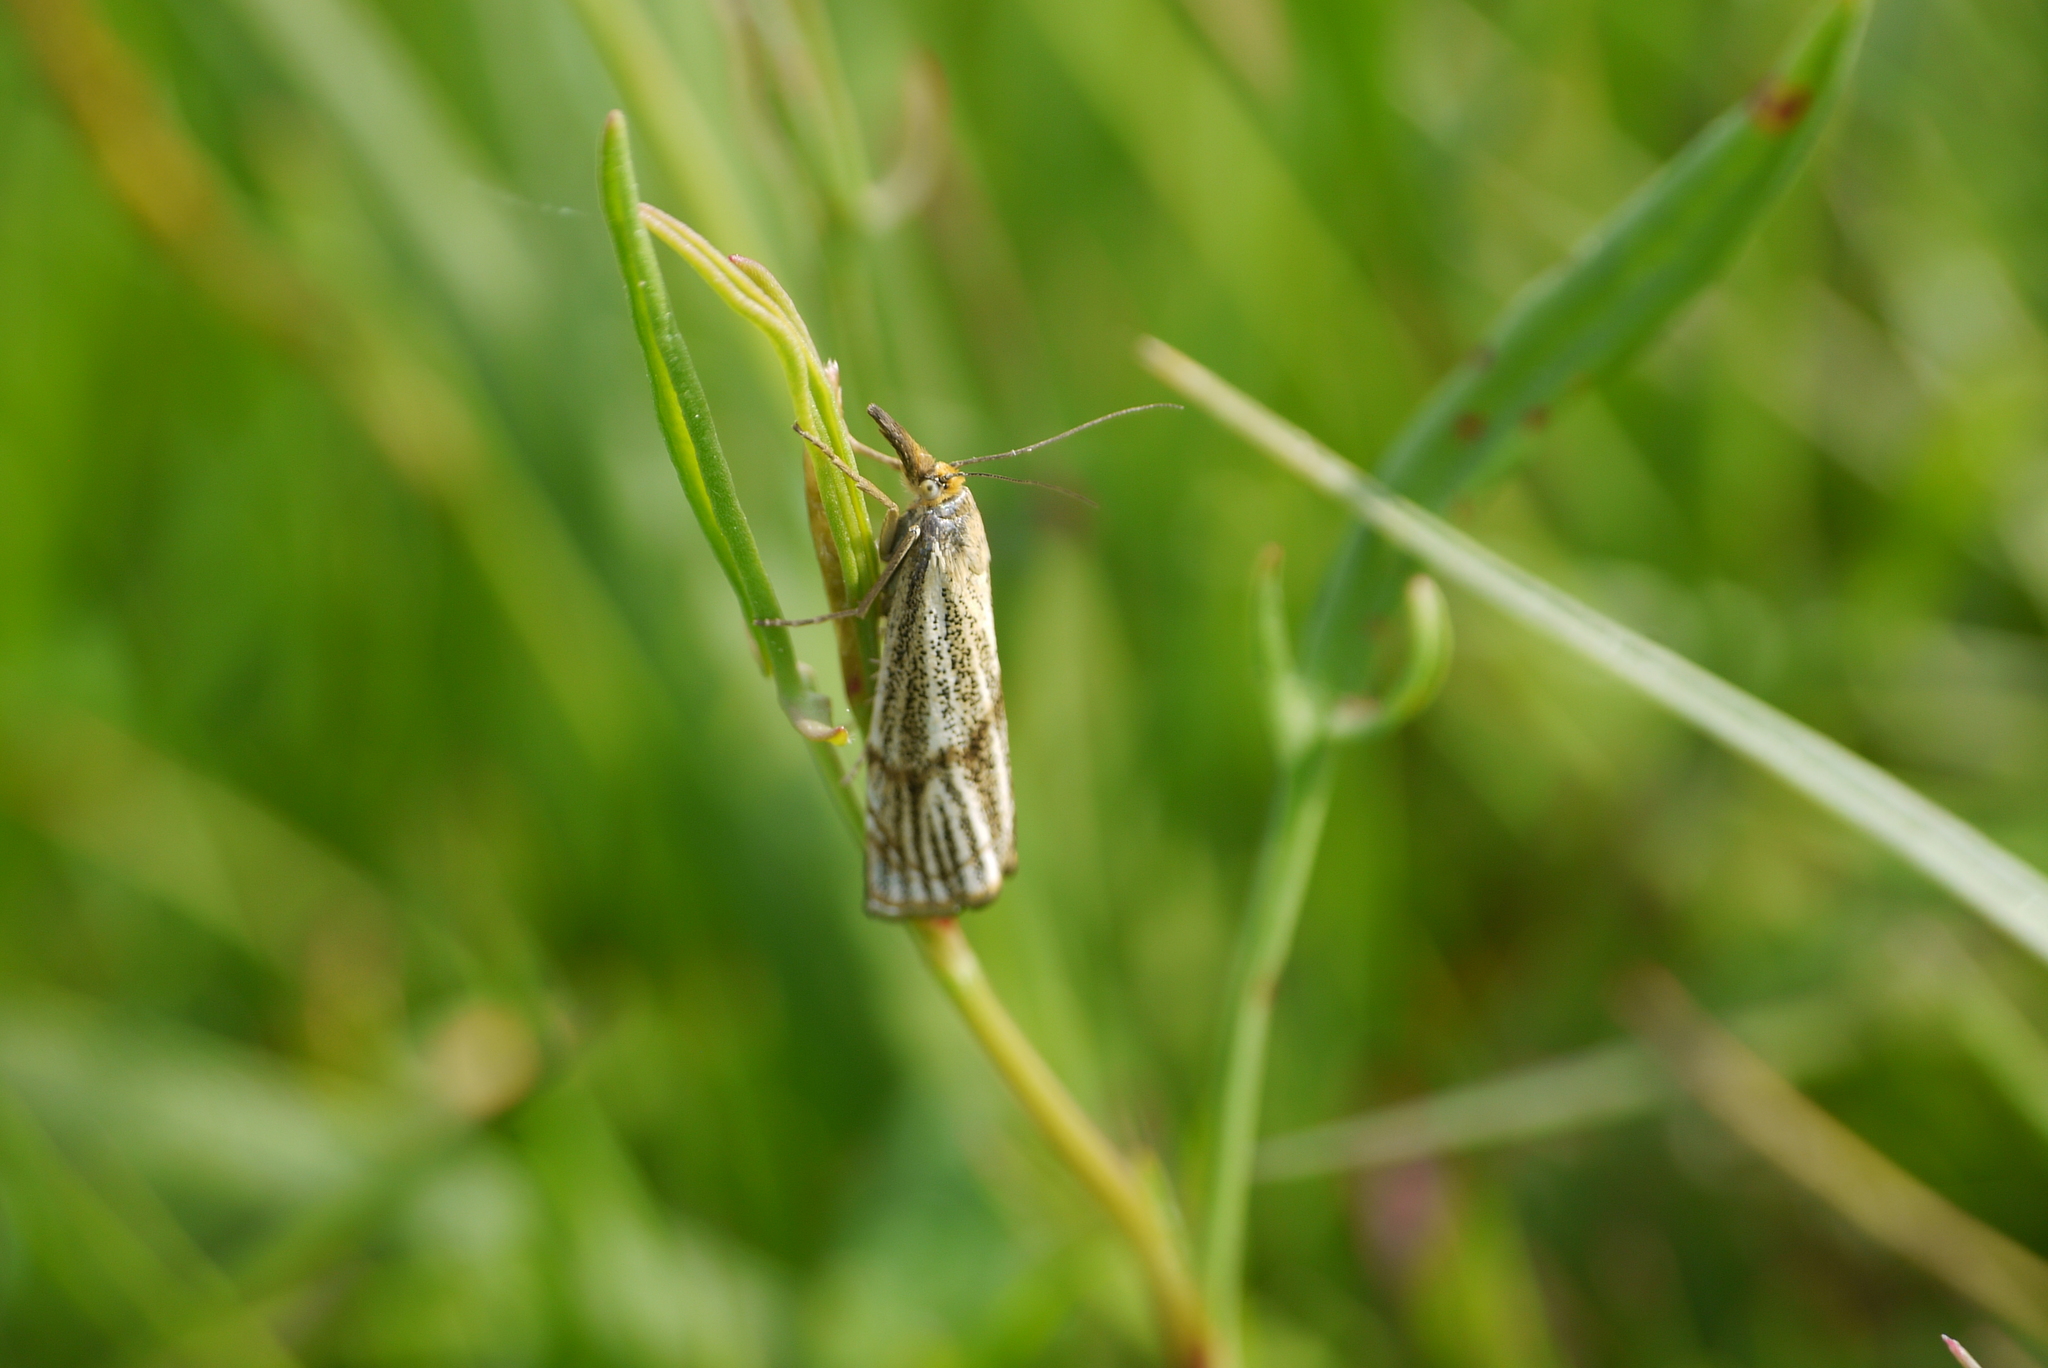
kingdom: Animalia
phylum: Arthropoda
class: Insecta
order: Lepidoptera
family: Crambidae
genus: Thisanotia
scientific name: Thisanotia chrysonuchella
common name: Powdered grass-veneer
